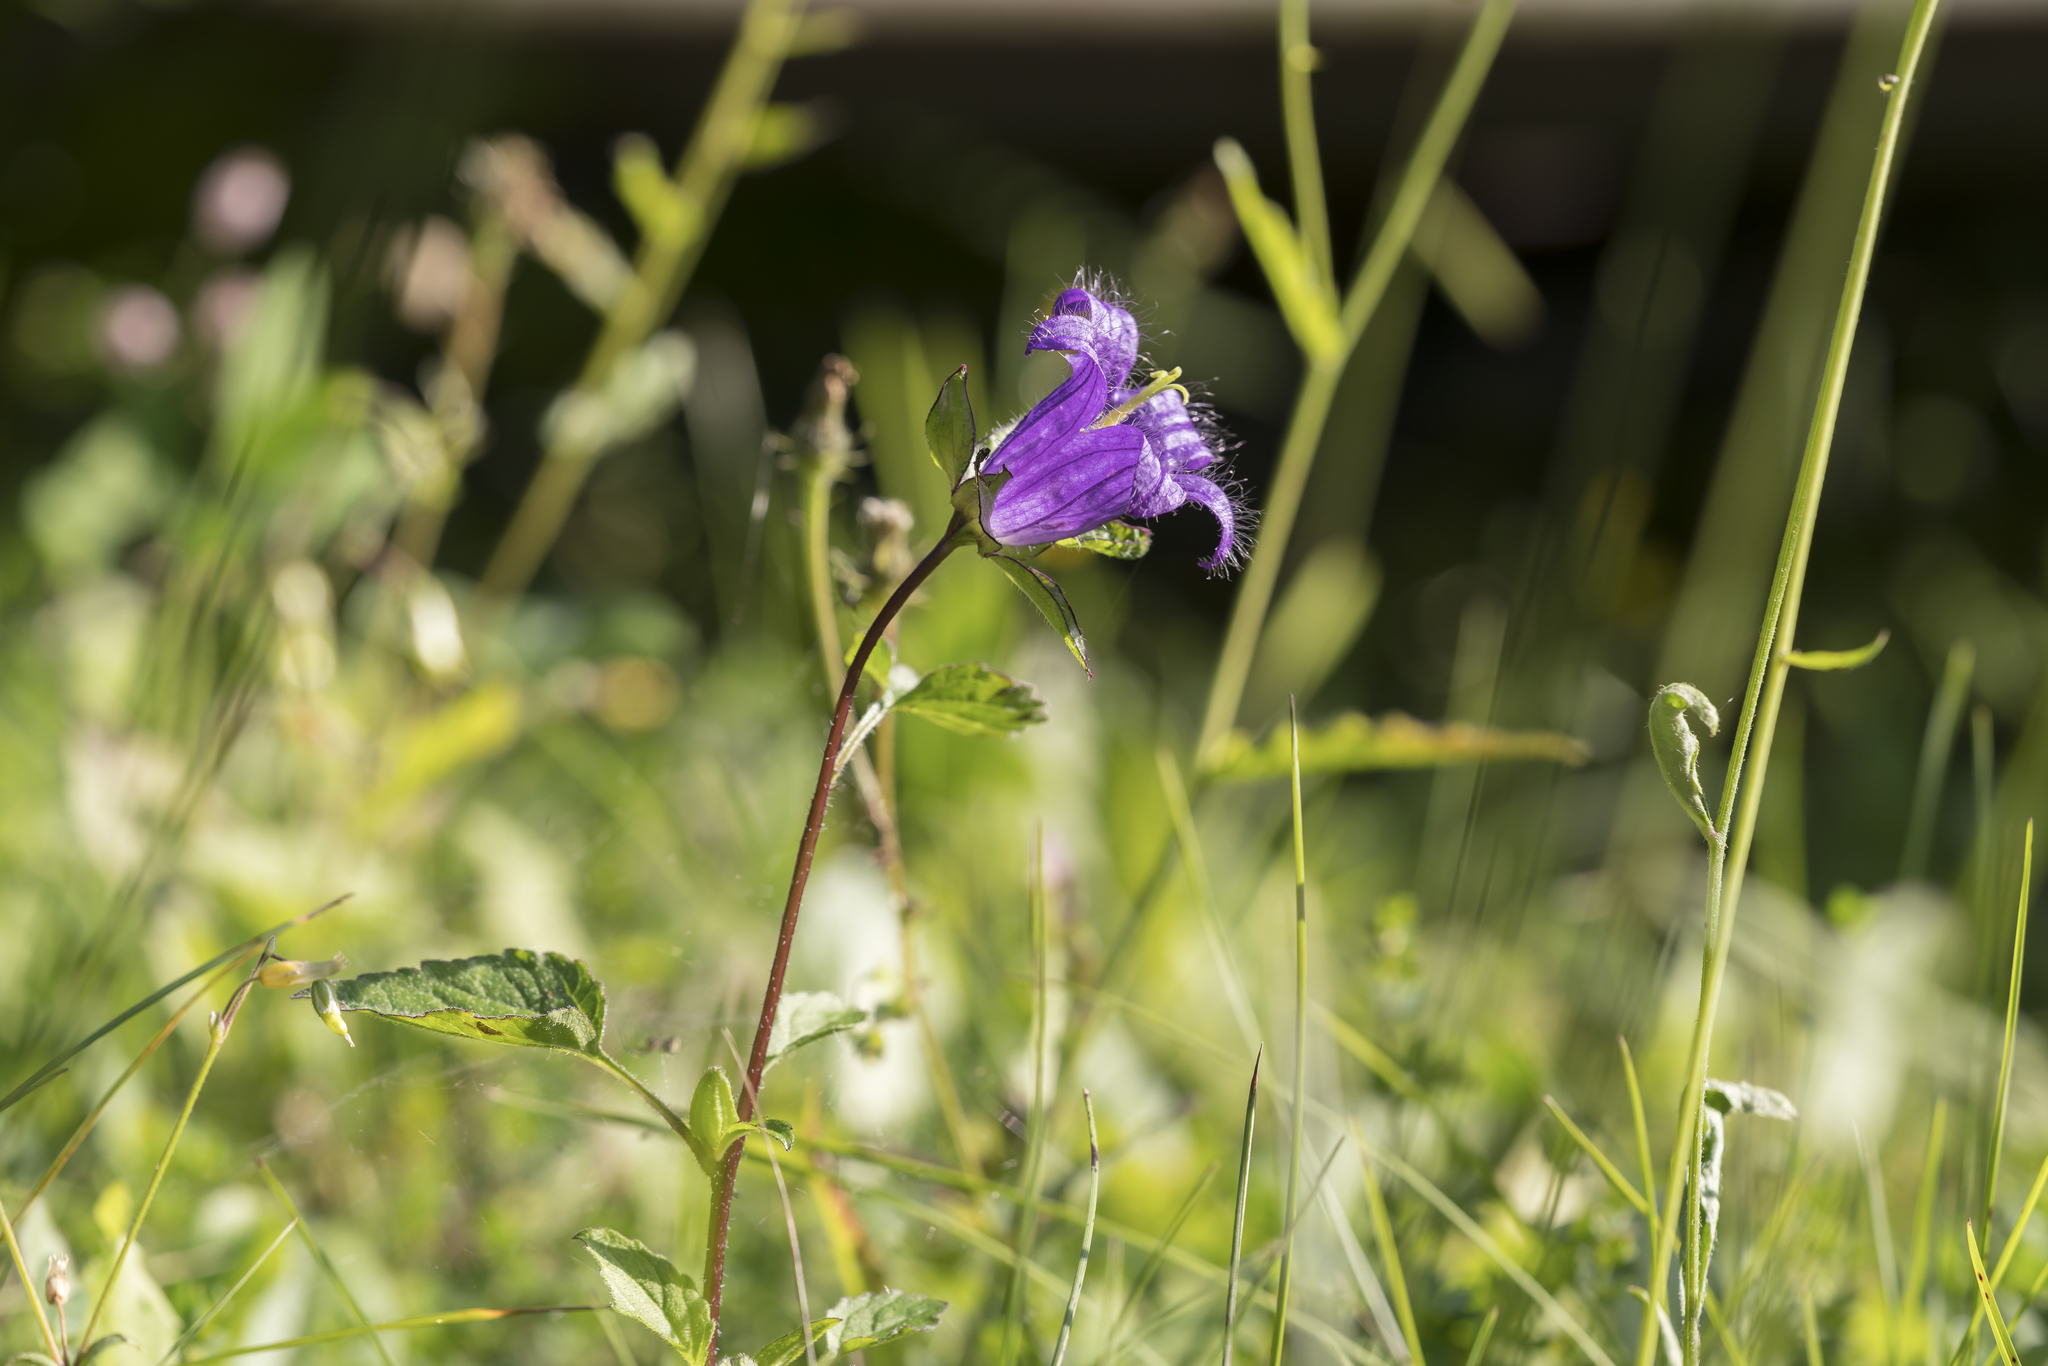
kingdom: Plantae
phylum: Tracheophyta
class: Magnoliopsida
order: Asterales
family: Campanulaceae
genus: Campanula
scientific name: Campanula trachelium
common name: Nettle-leaved bellflower
